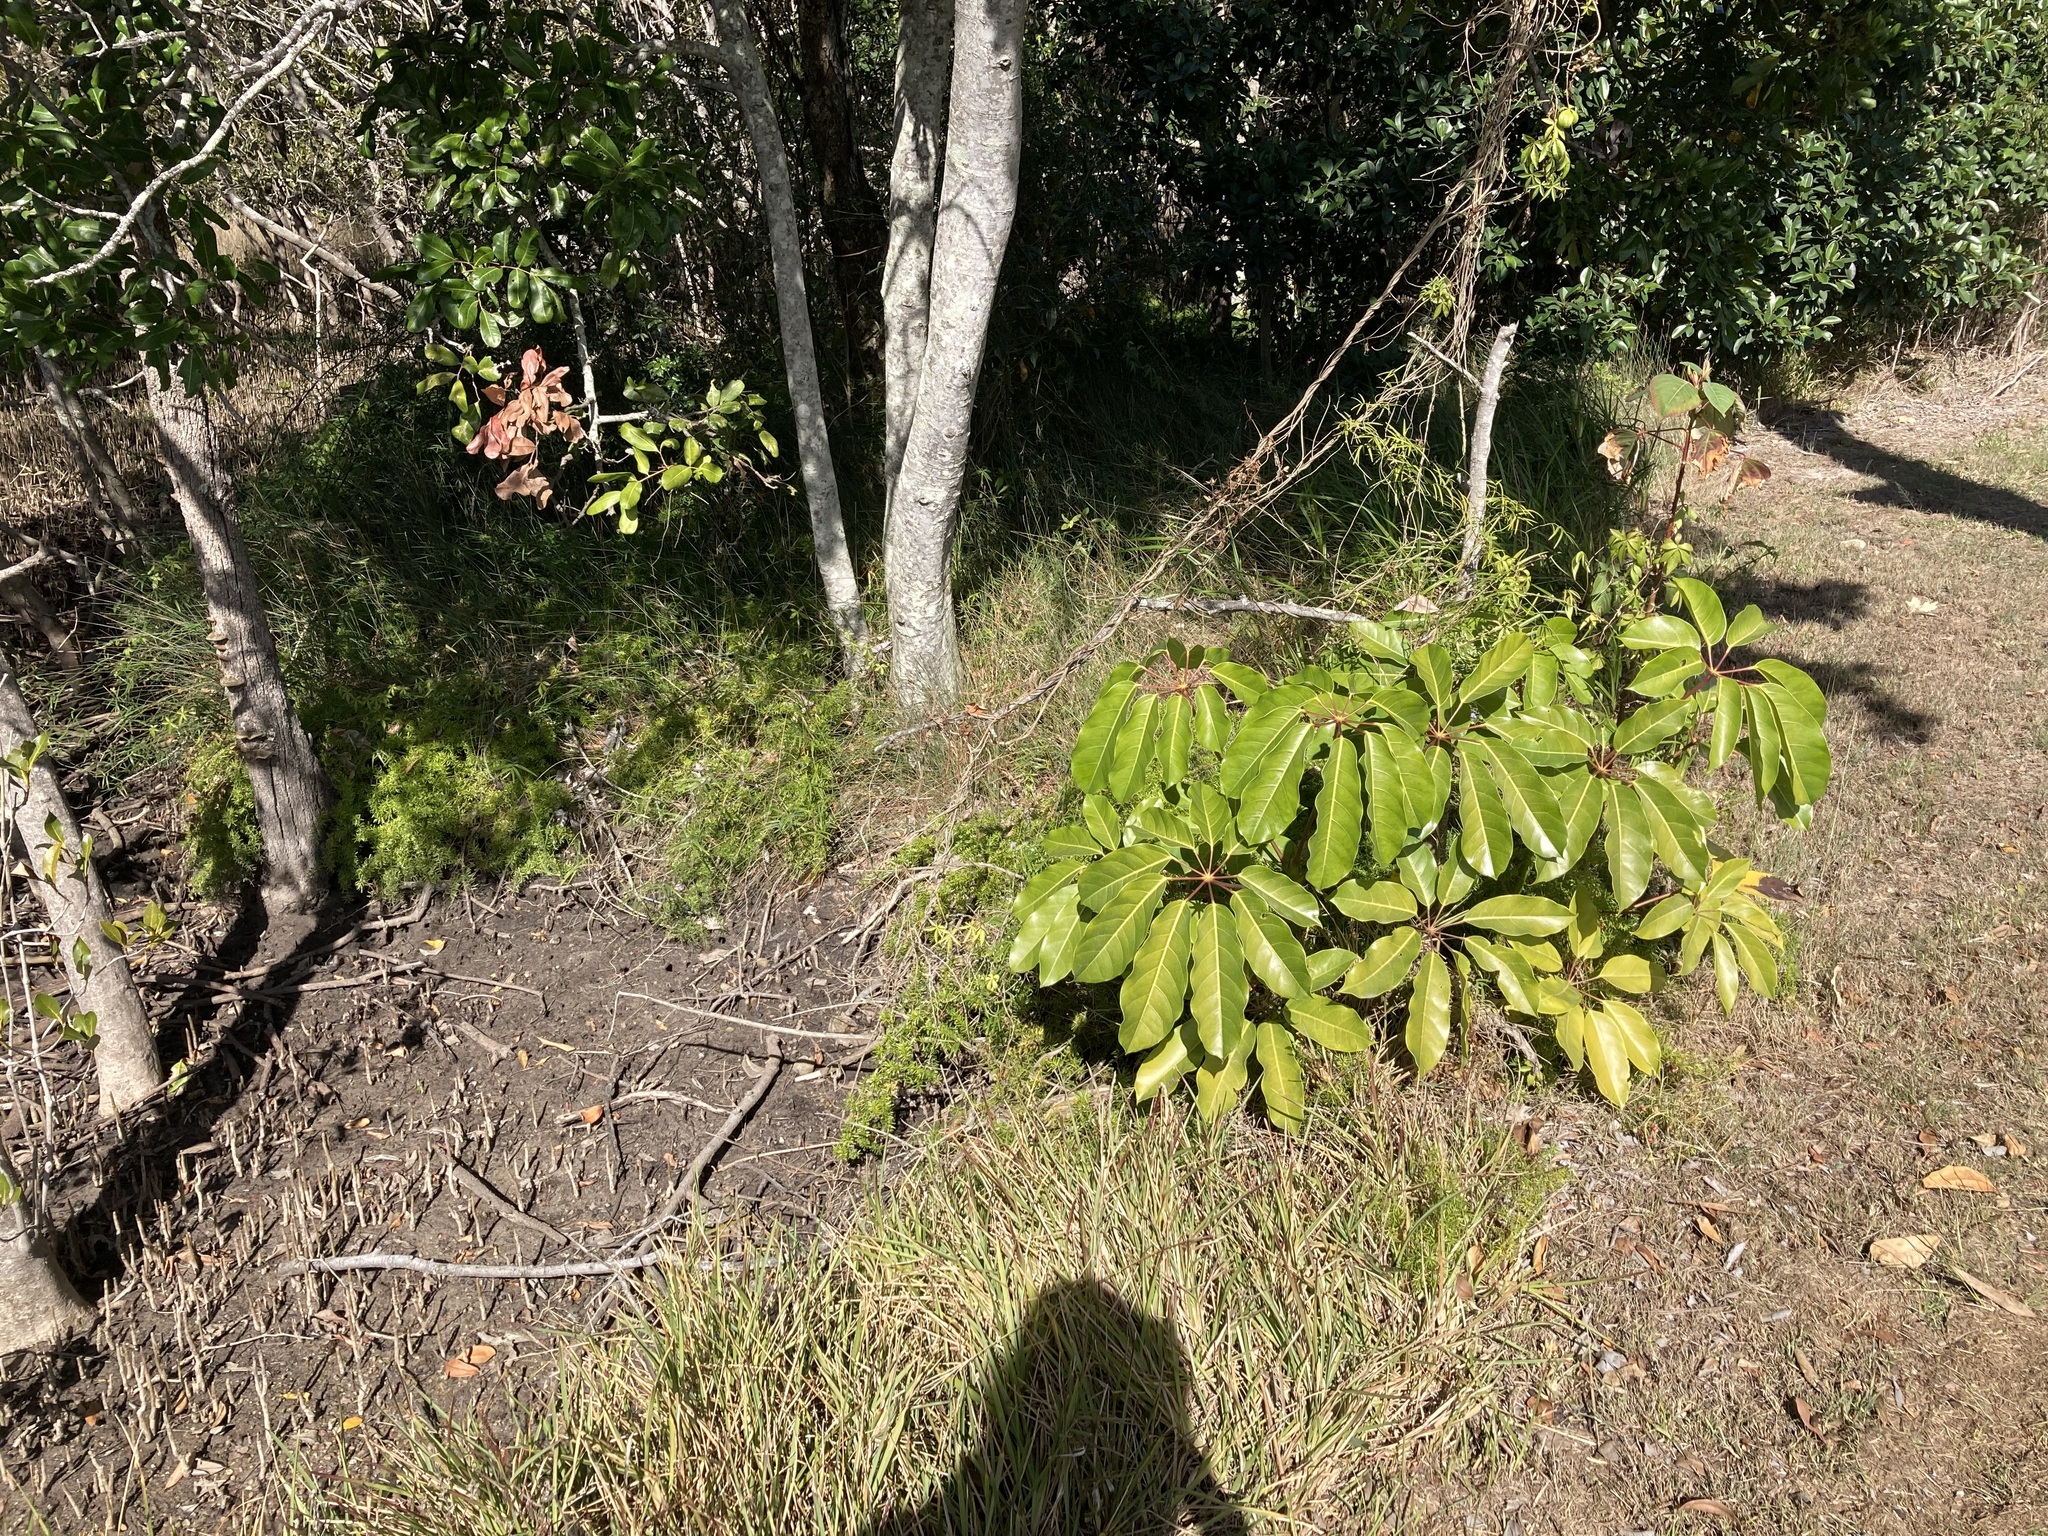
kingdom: Plantae
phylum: Tracheophyta
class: Magnoliopsida
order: Apiales
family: Araliaceae
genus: Heptapleurum
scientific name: Heptapleurum actinophyllum
